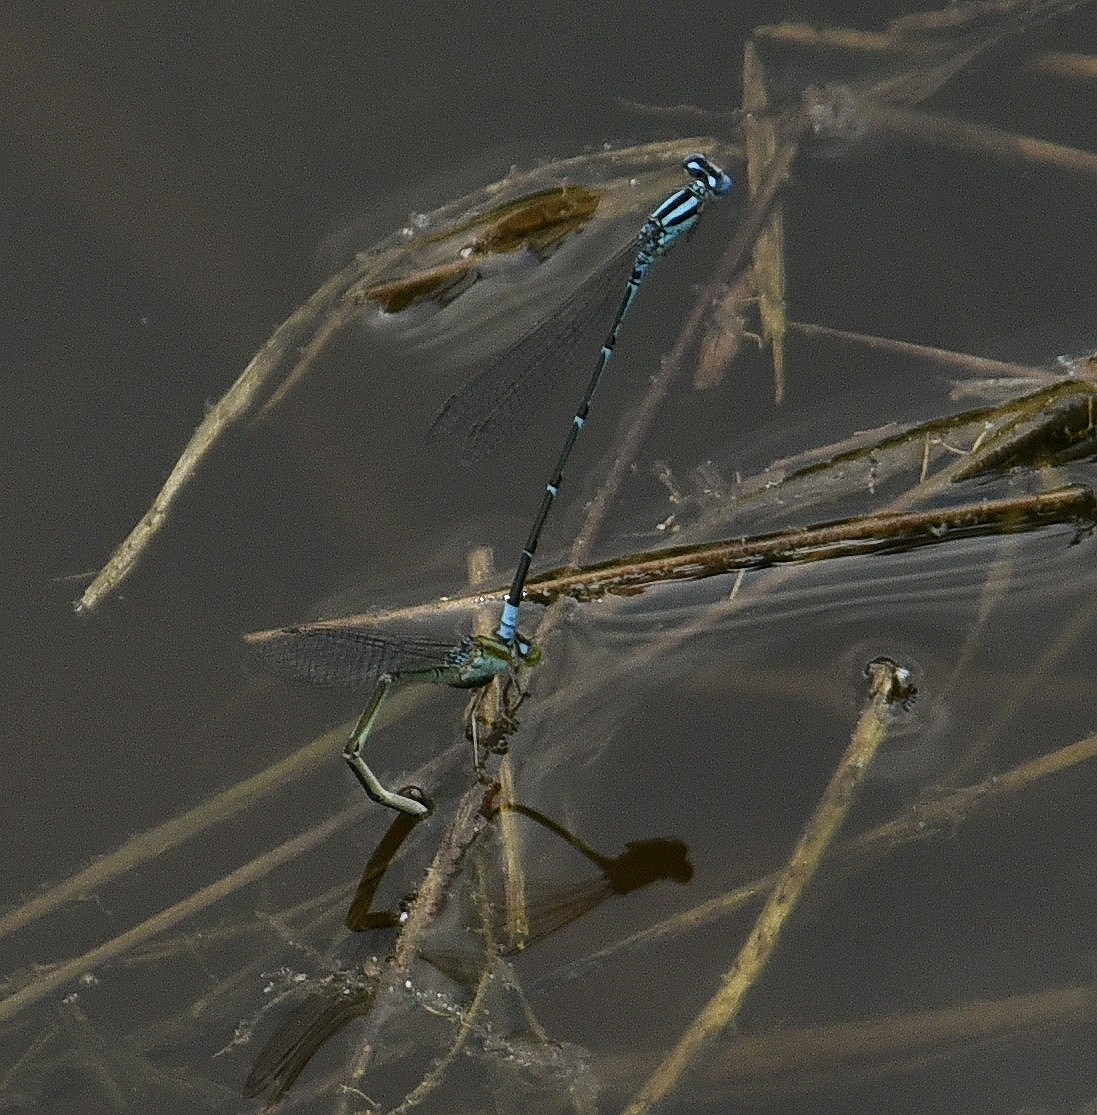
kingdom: Animalia
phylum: Arthropoda
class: Insecta
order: Odonata
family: Coenagrionidae
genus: Pseudagrion
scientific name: Pseudagrion malabaricum
